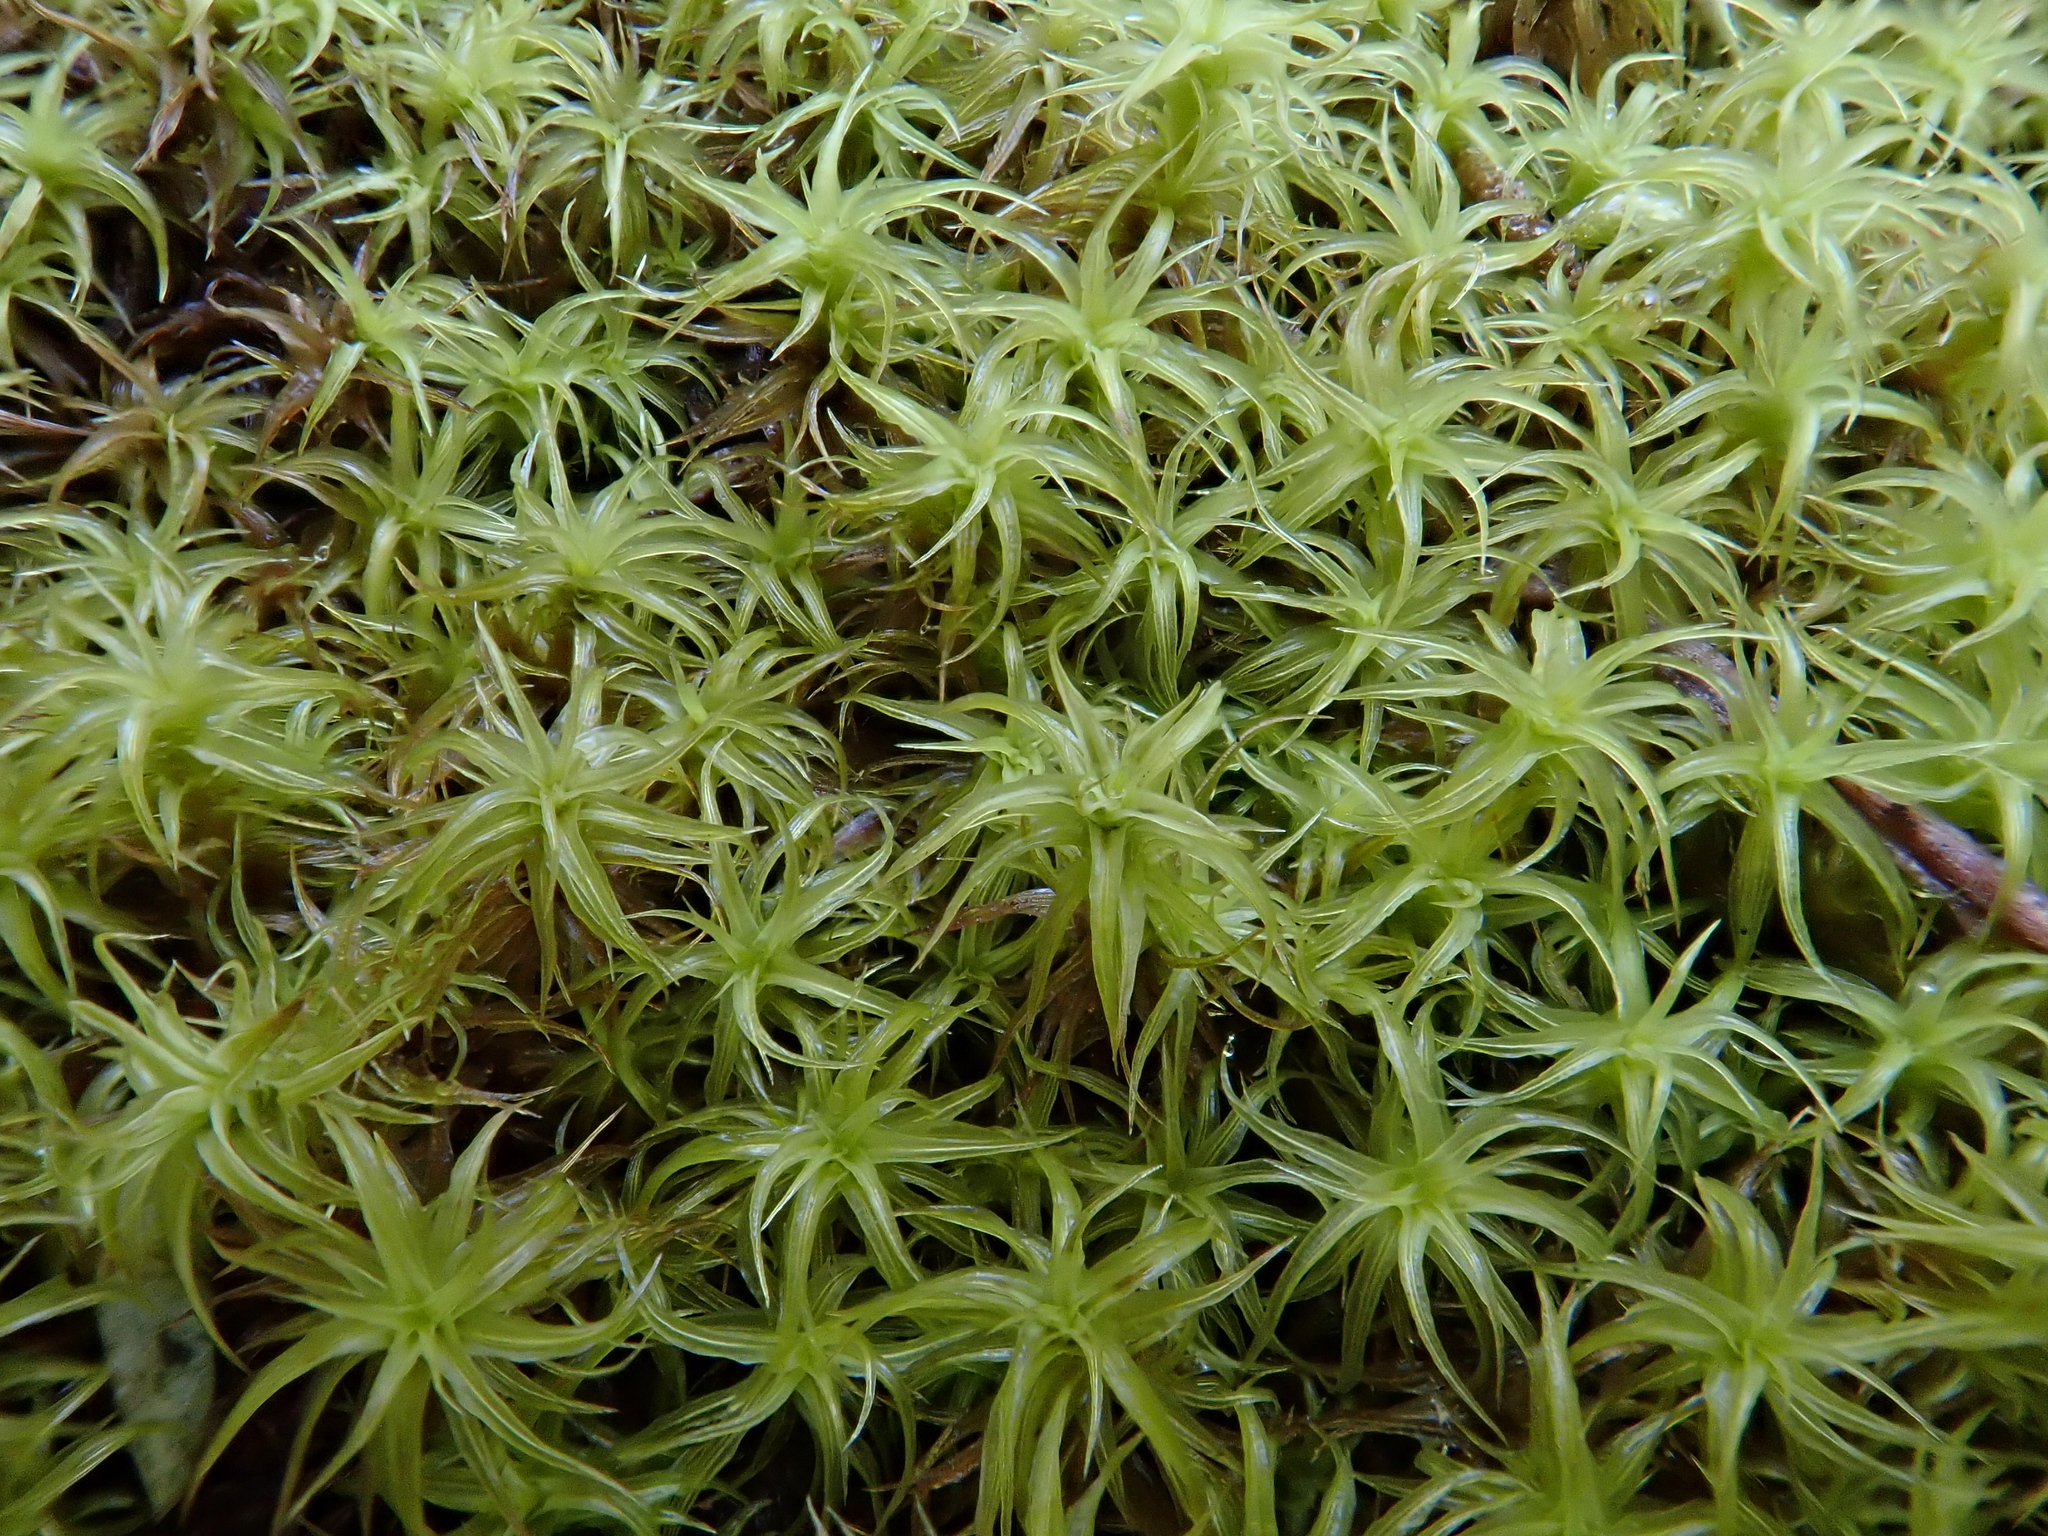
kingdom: Plantae
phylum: Bryophyta
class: Bryopsida
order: Pottiales
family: Pottiaceae
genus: Pleurochaete
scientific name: Pleurochaete squarrosa
